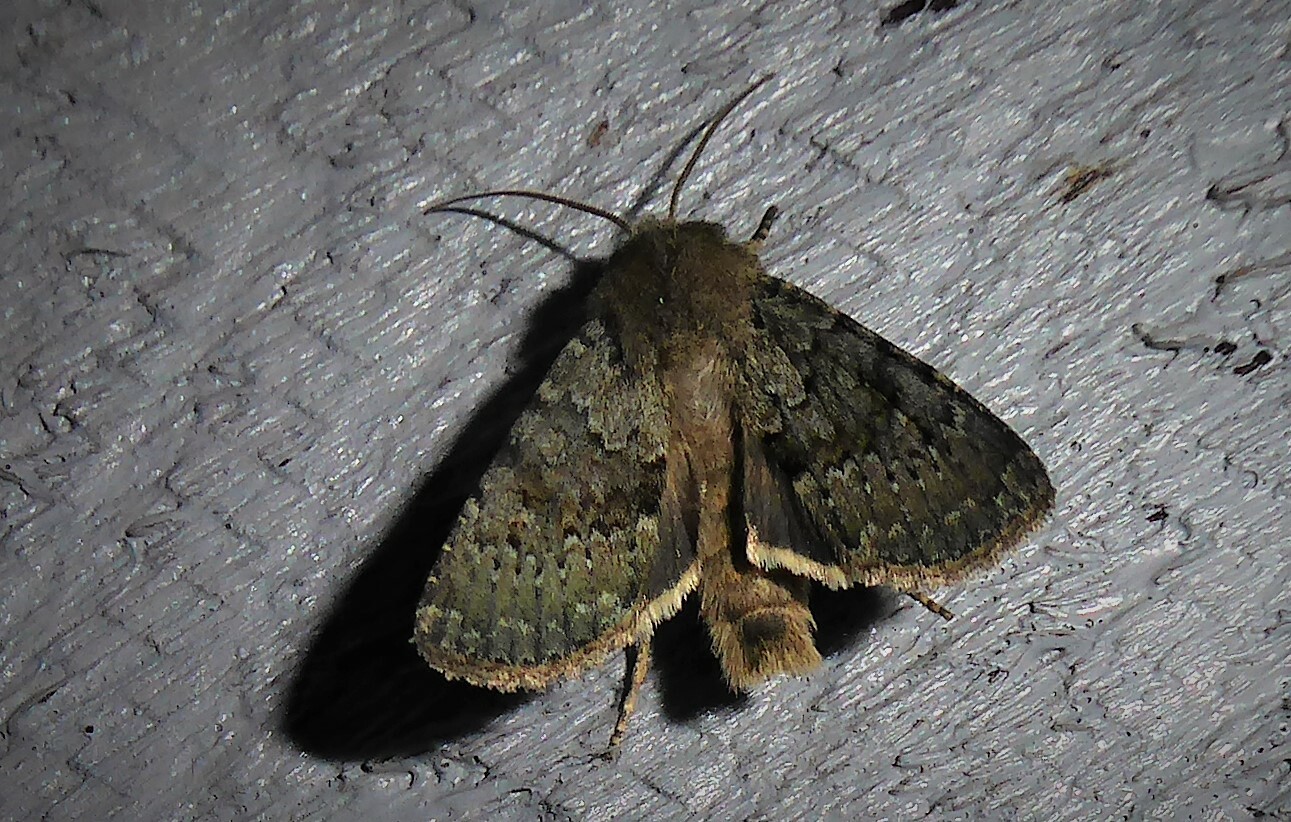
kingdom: Animalia
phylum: Arthropoda
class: Insecta
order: Lepidoptera
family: Noctuidae
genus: Ichneutica
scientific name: Ichneutica moderata
